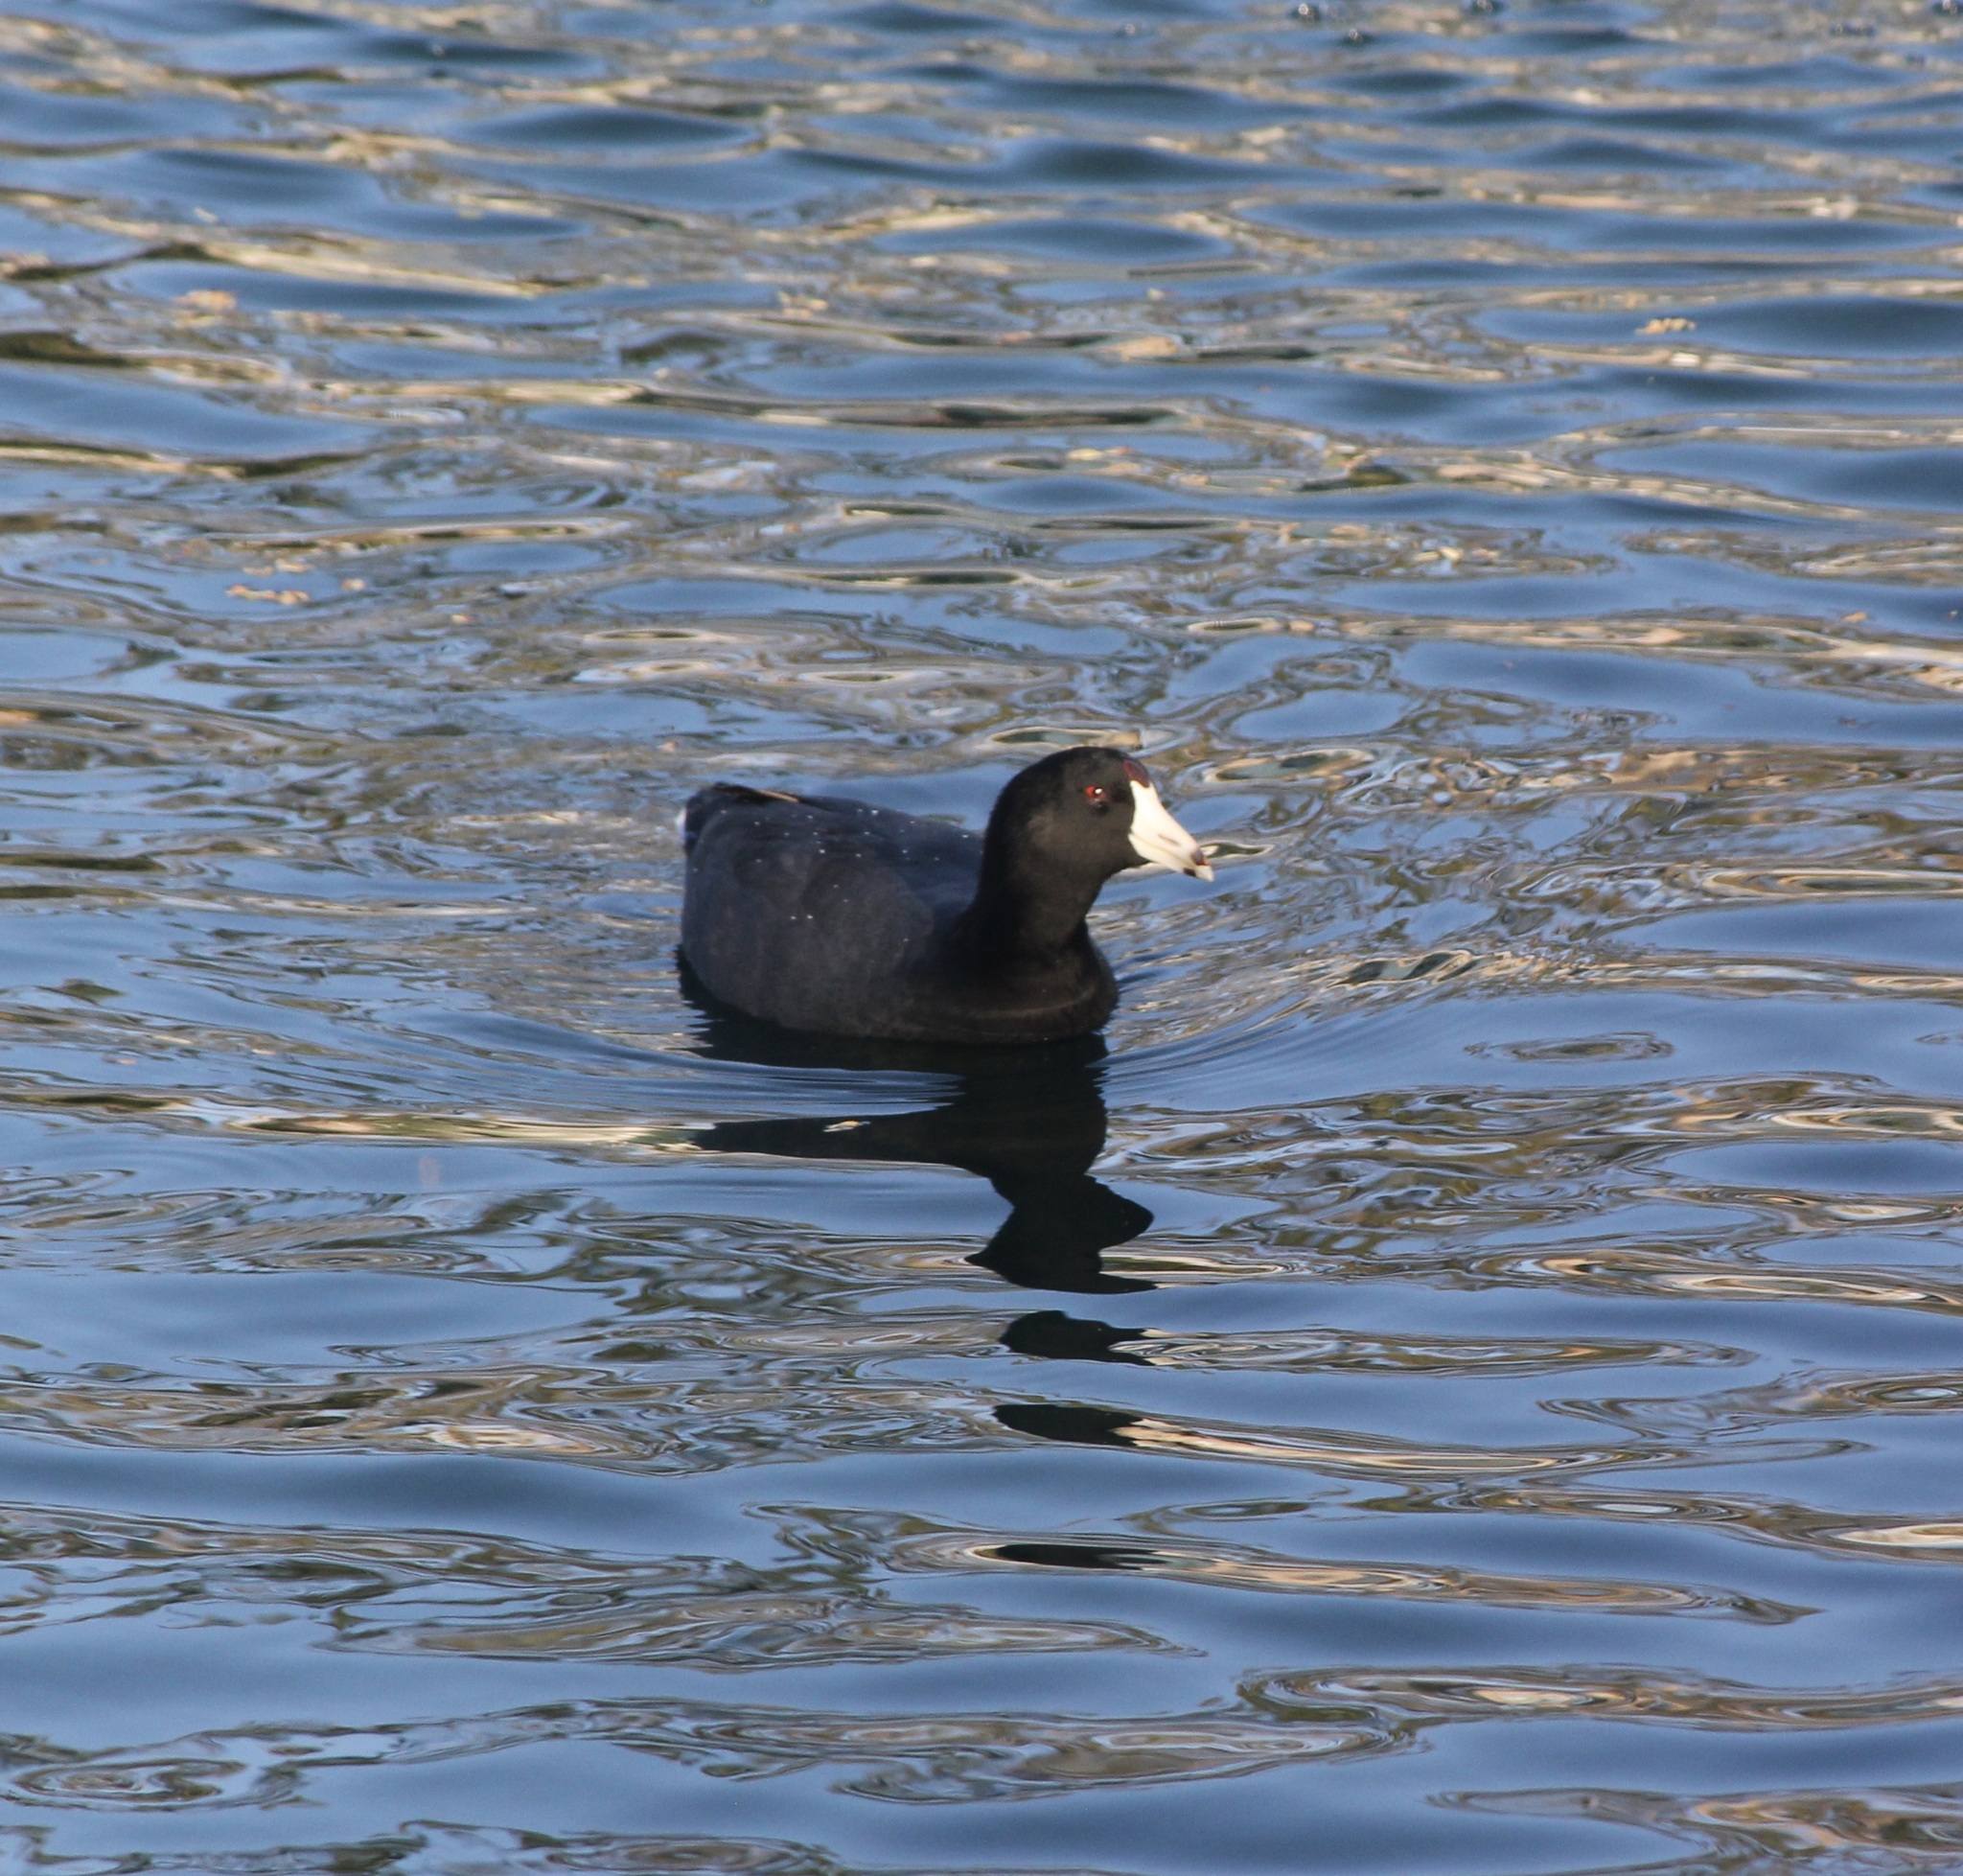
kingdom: Animalia
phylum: Chordata
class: Aves
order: Gruiformes
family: Rallidae
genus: Fulica
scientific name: Fulica americana
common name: American coot
